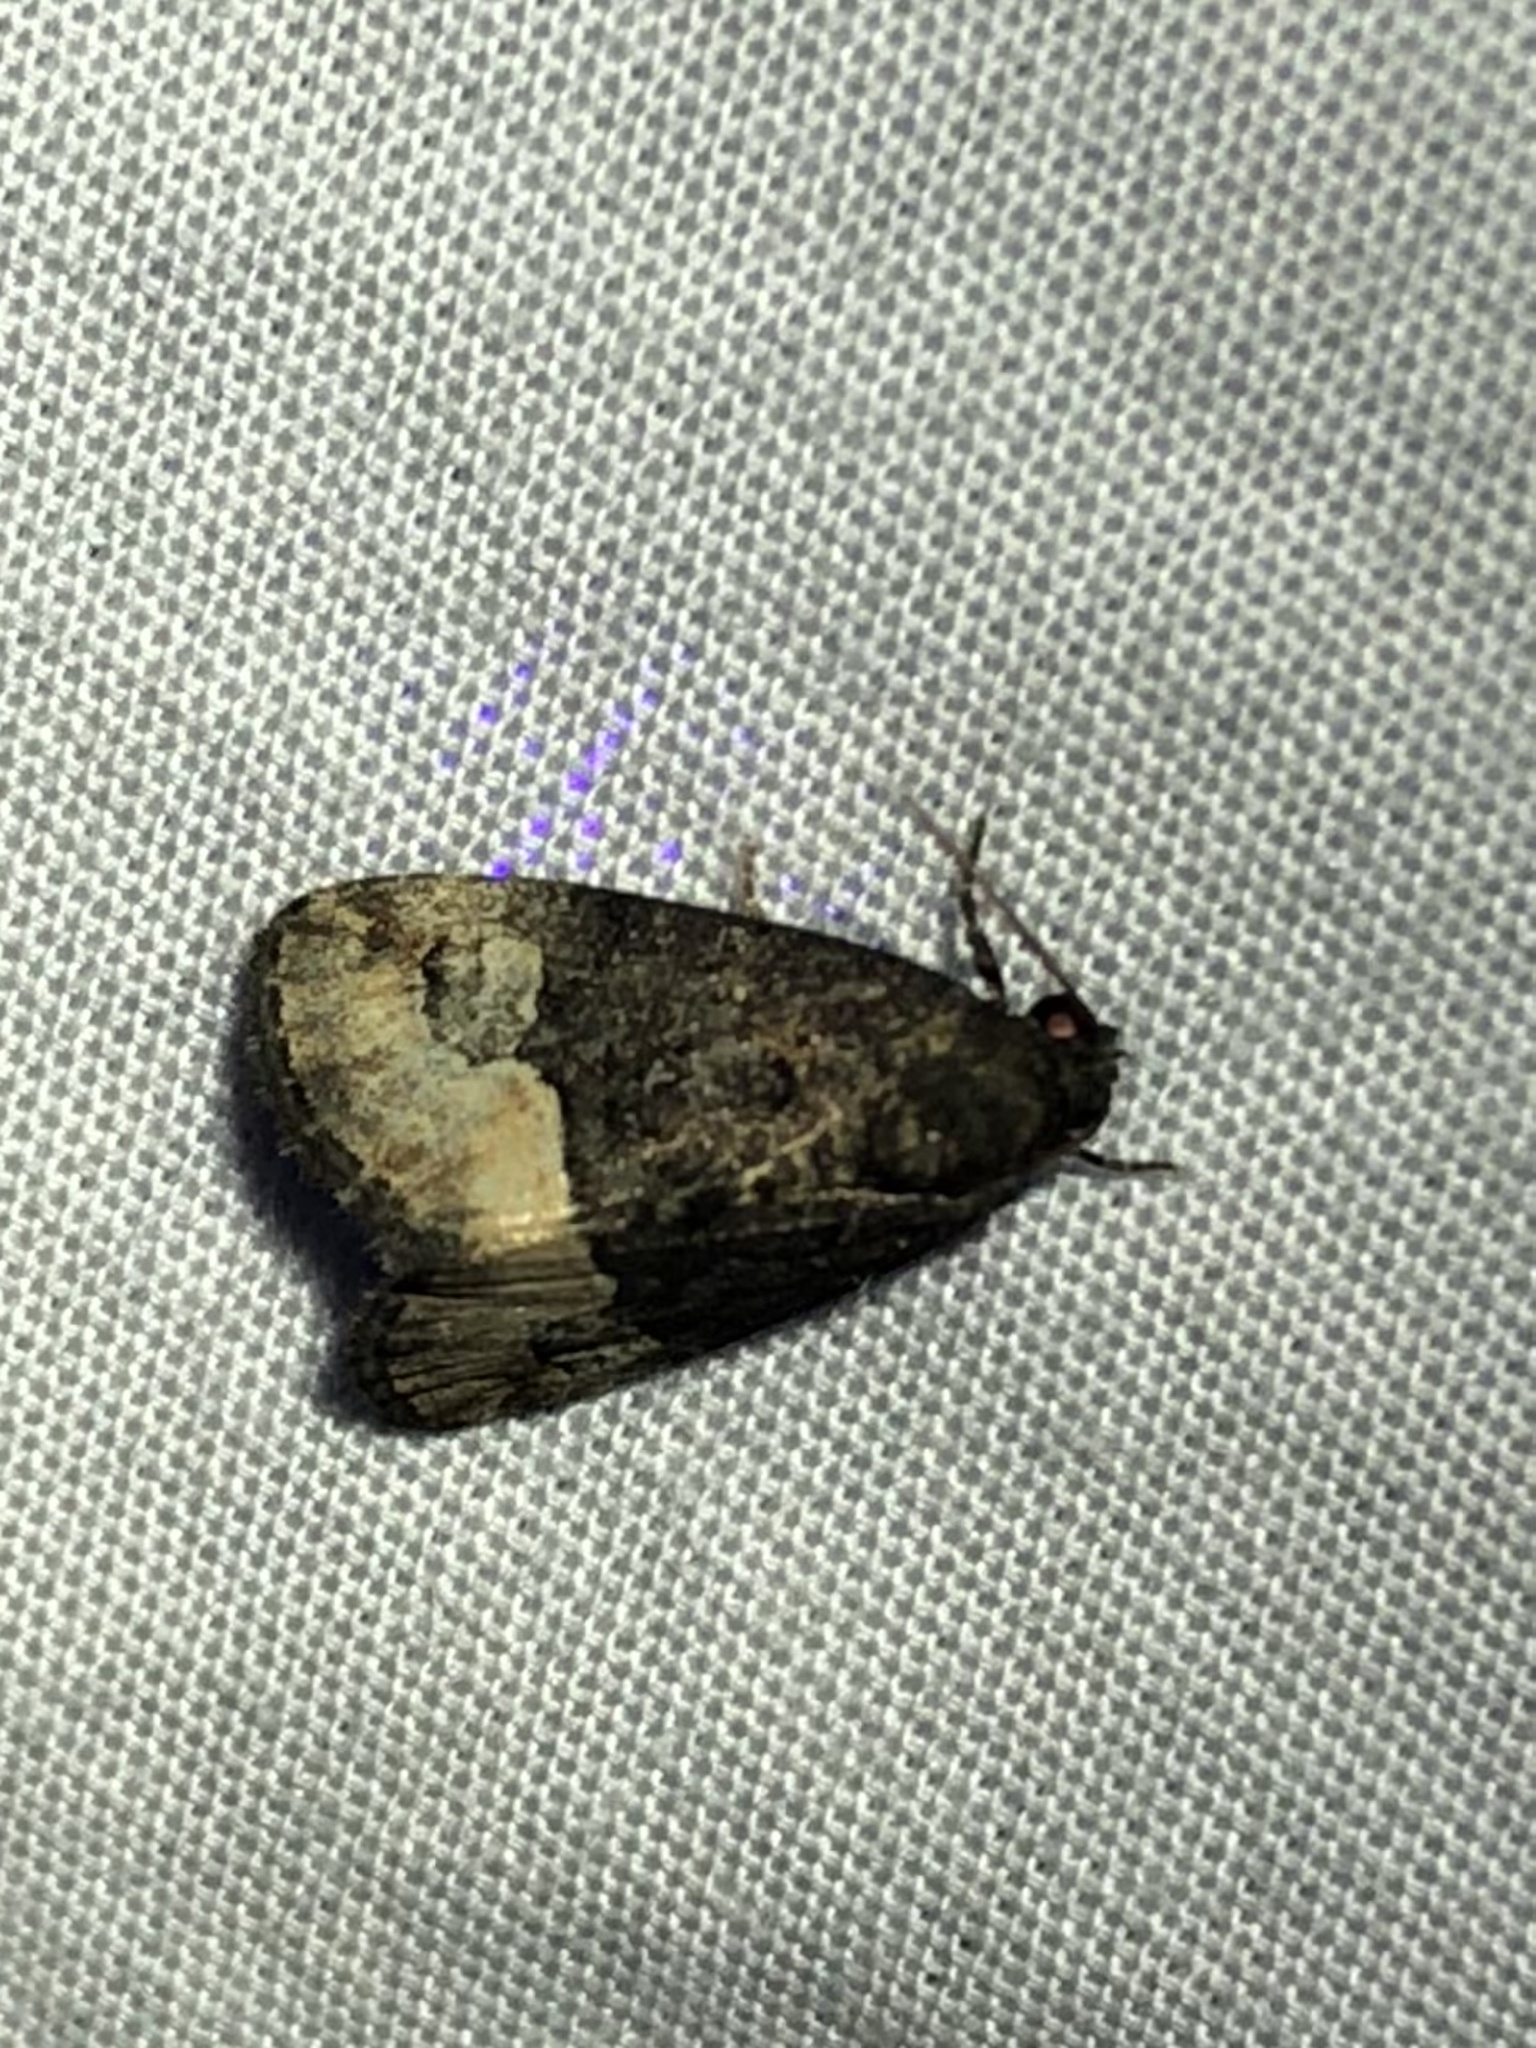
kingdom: Animalia
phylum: Arthropoda
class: Insecta
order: Lepidoptera
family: Noctuidae
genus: Ozarba
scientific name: Ozarba propera
